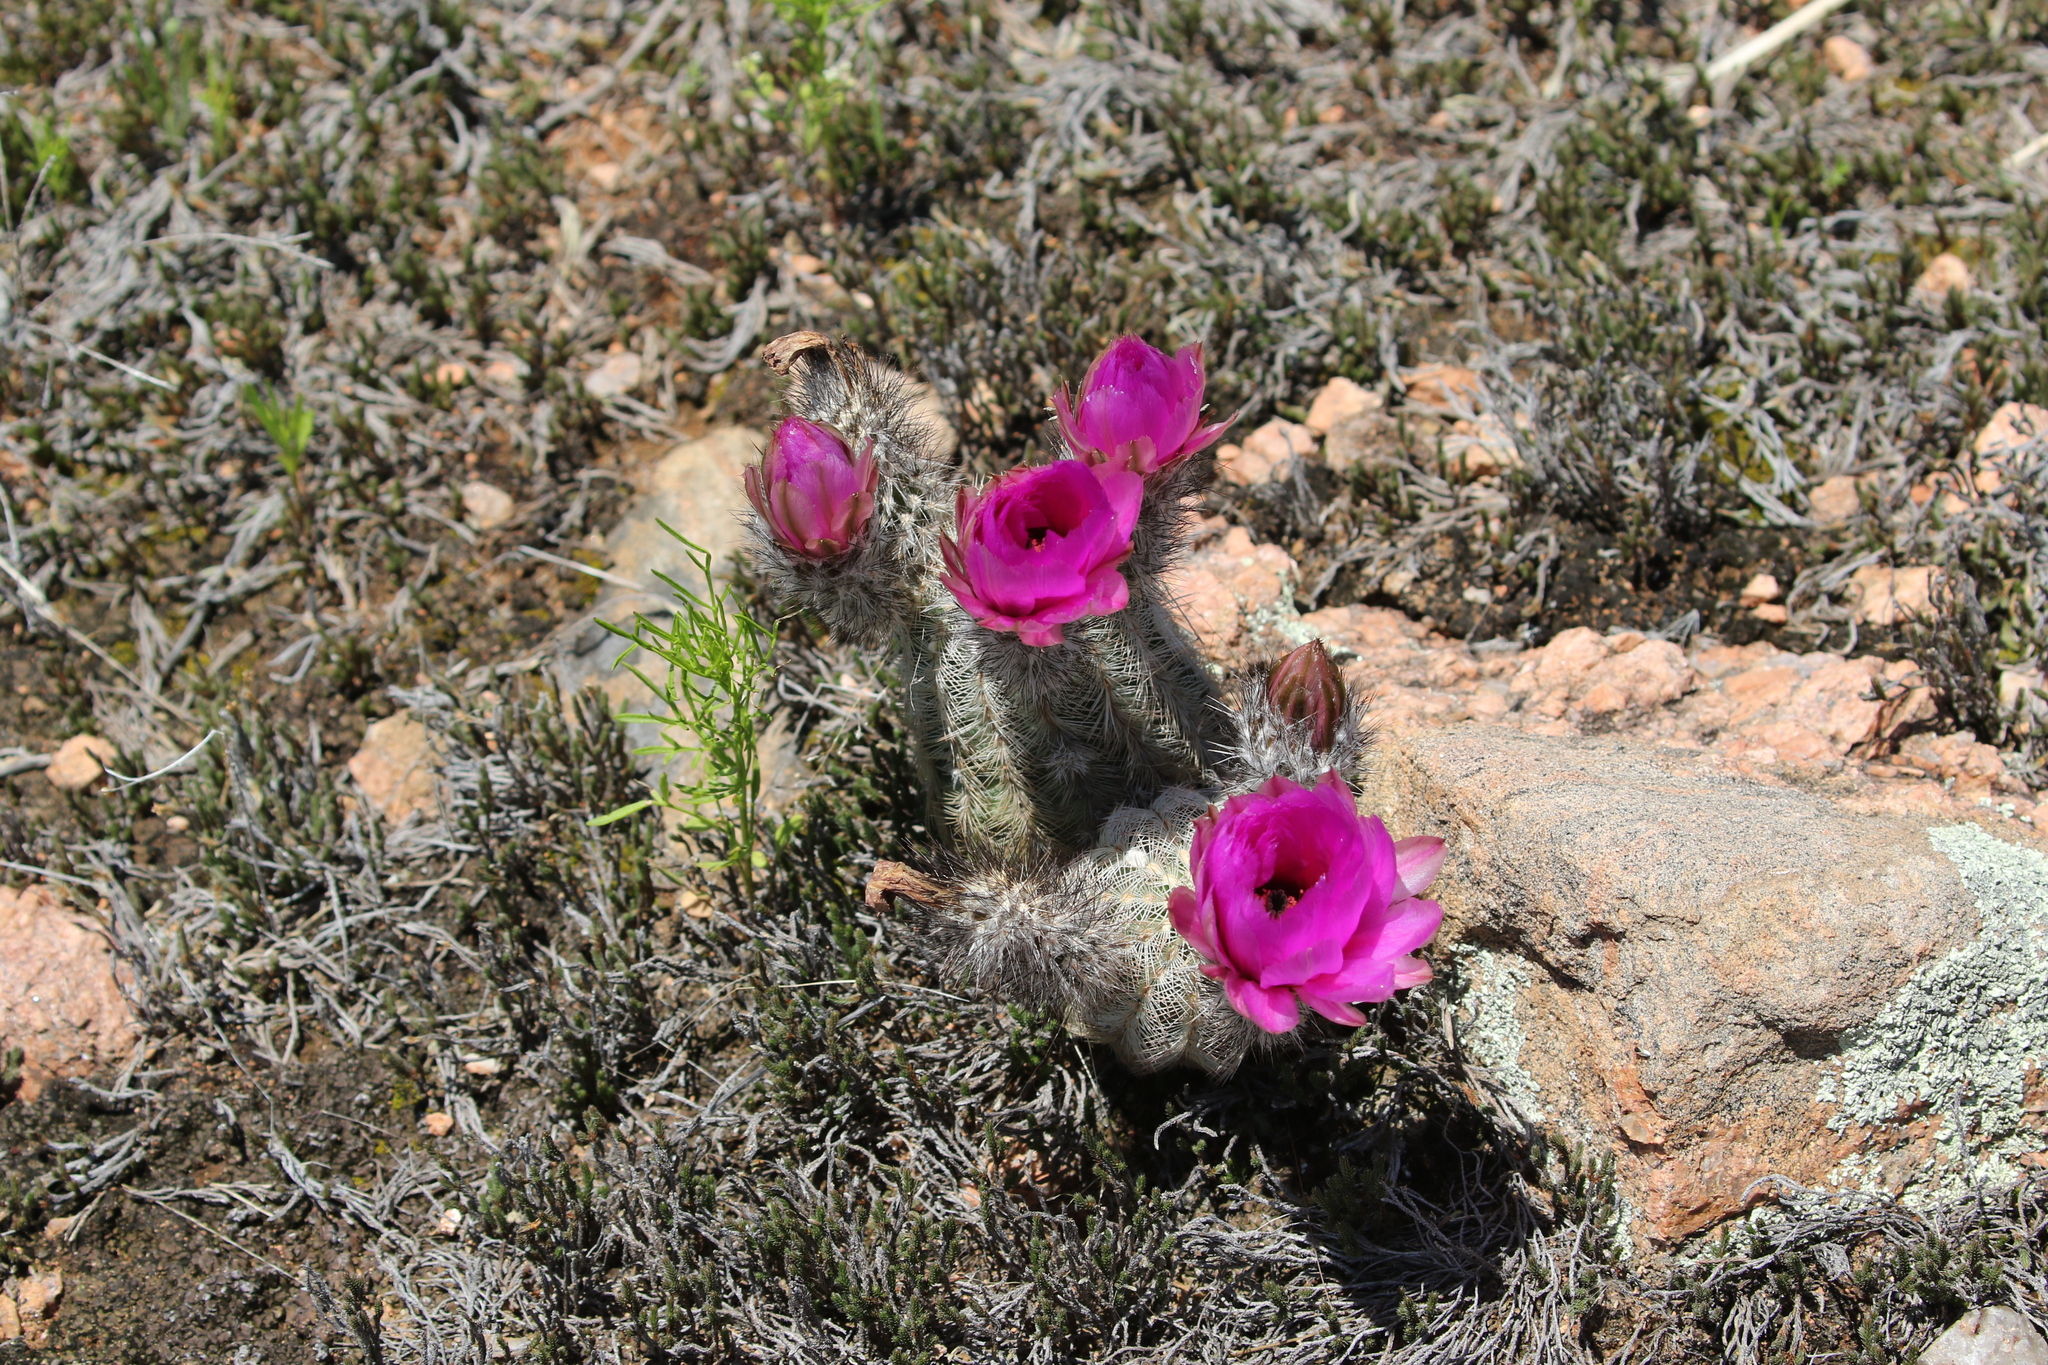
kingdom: Plantae
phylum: Tracheophyta
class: Magnoliopsida
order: Caryophyllales
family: Cactaceae
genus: Echinocereus
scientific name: Echinocereus reichenbachii
